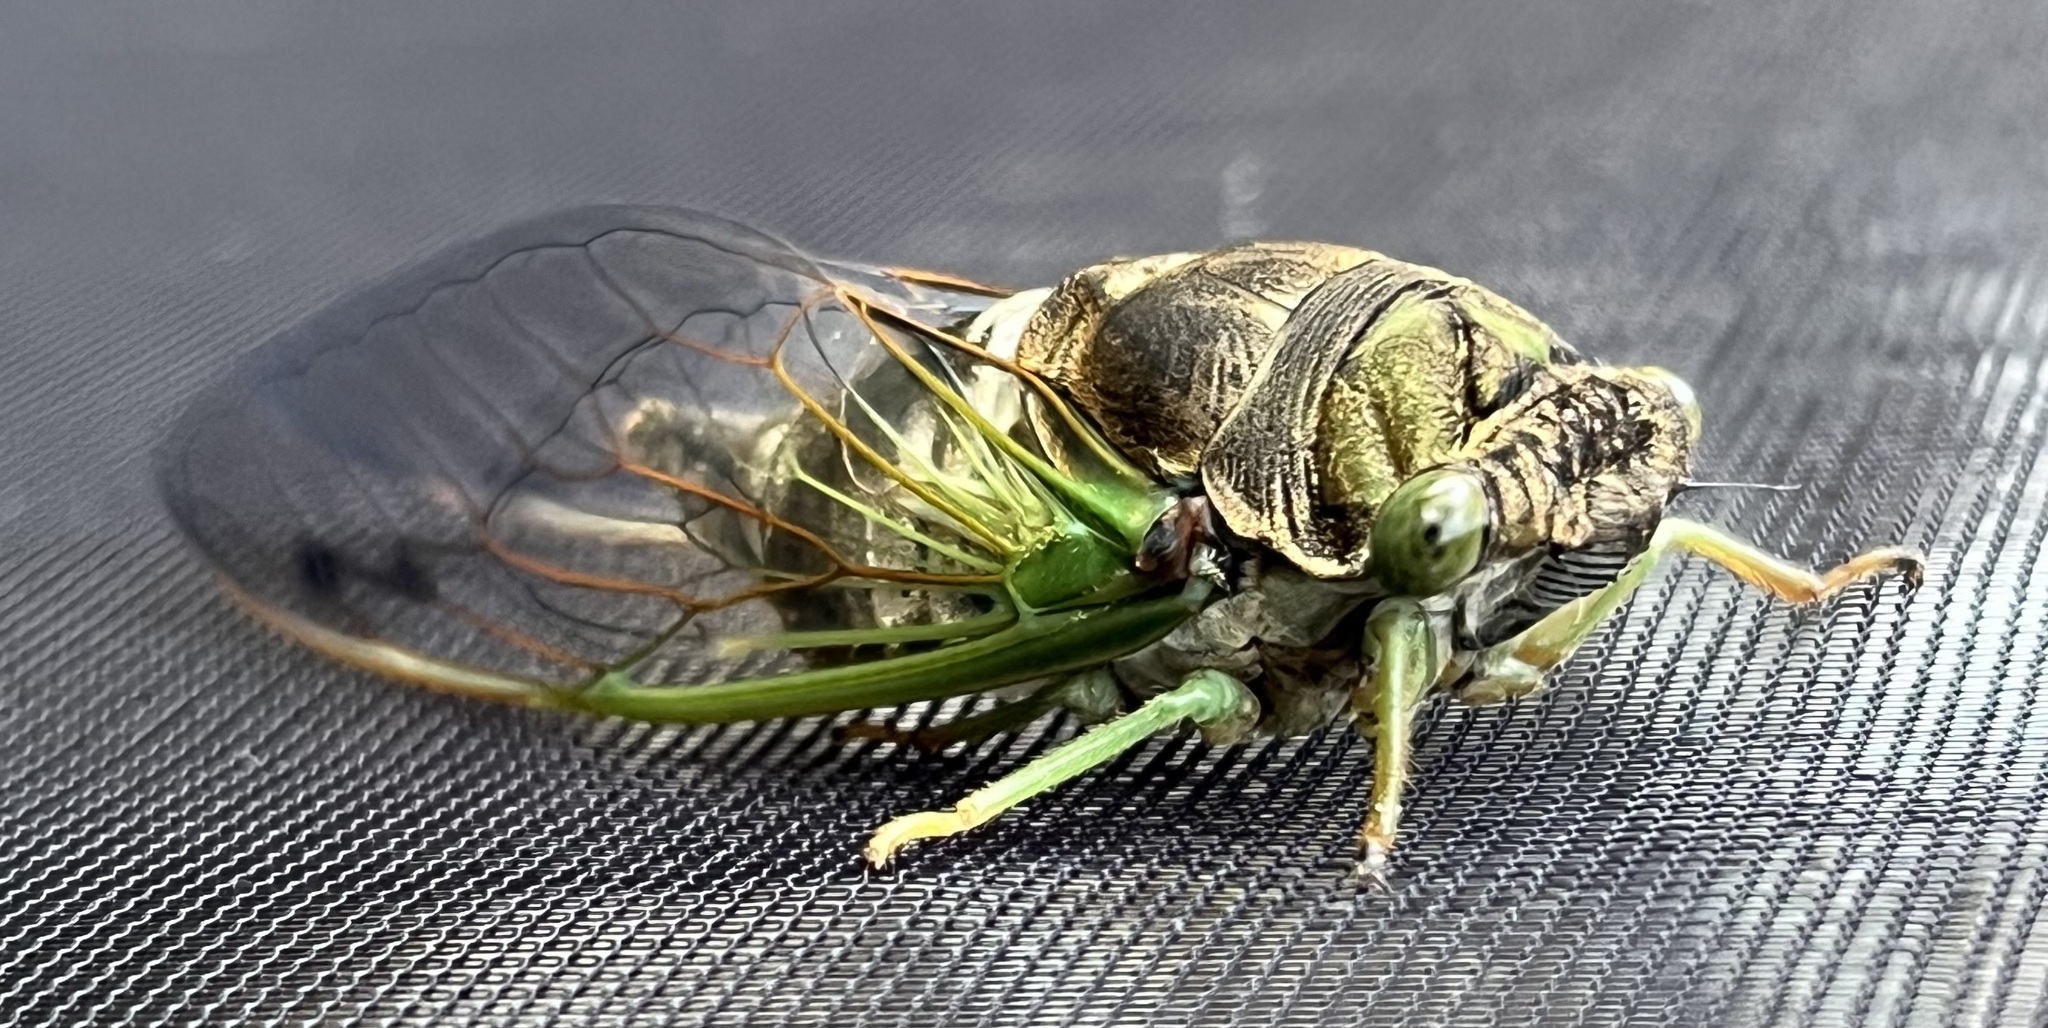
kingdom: Animalia
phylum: Arthropoda
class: Insecta
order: Hemiptera
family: Cicadidae
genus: Neotibicen
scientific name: Neotibicen tibicen
